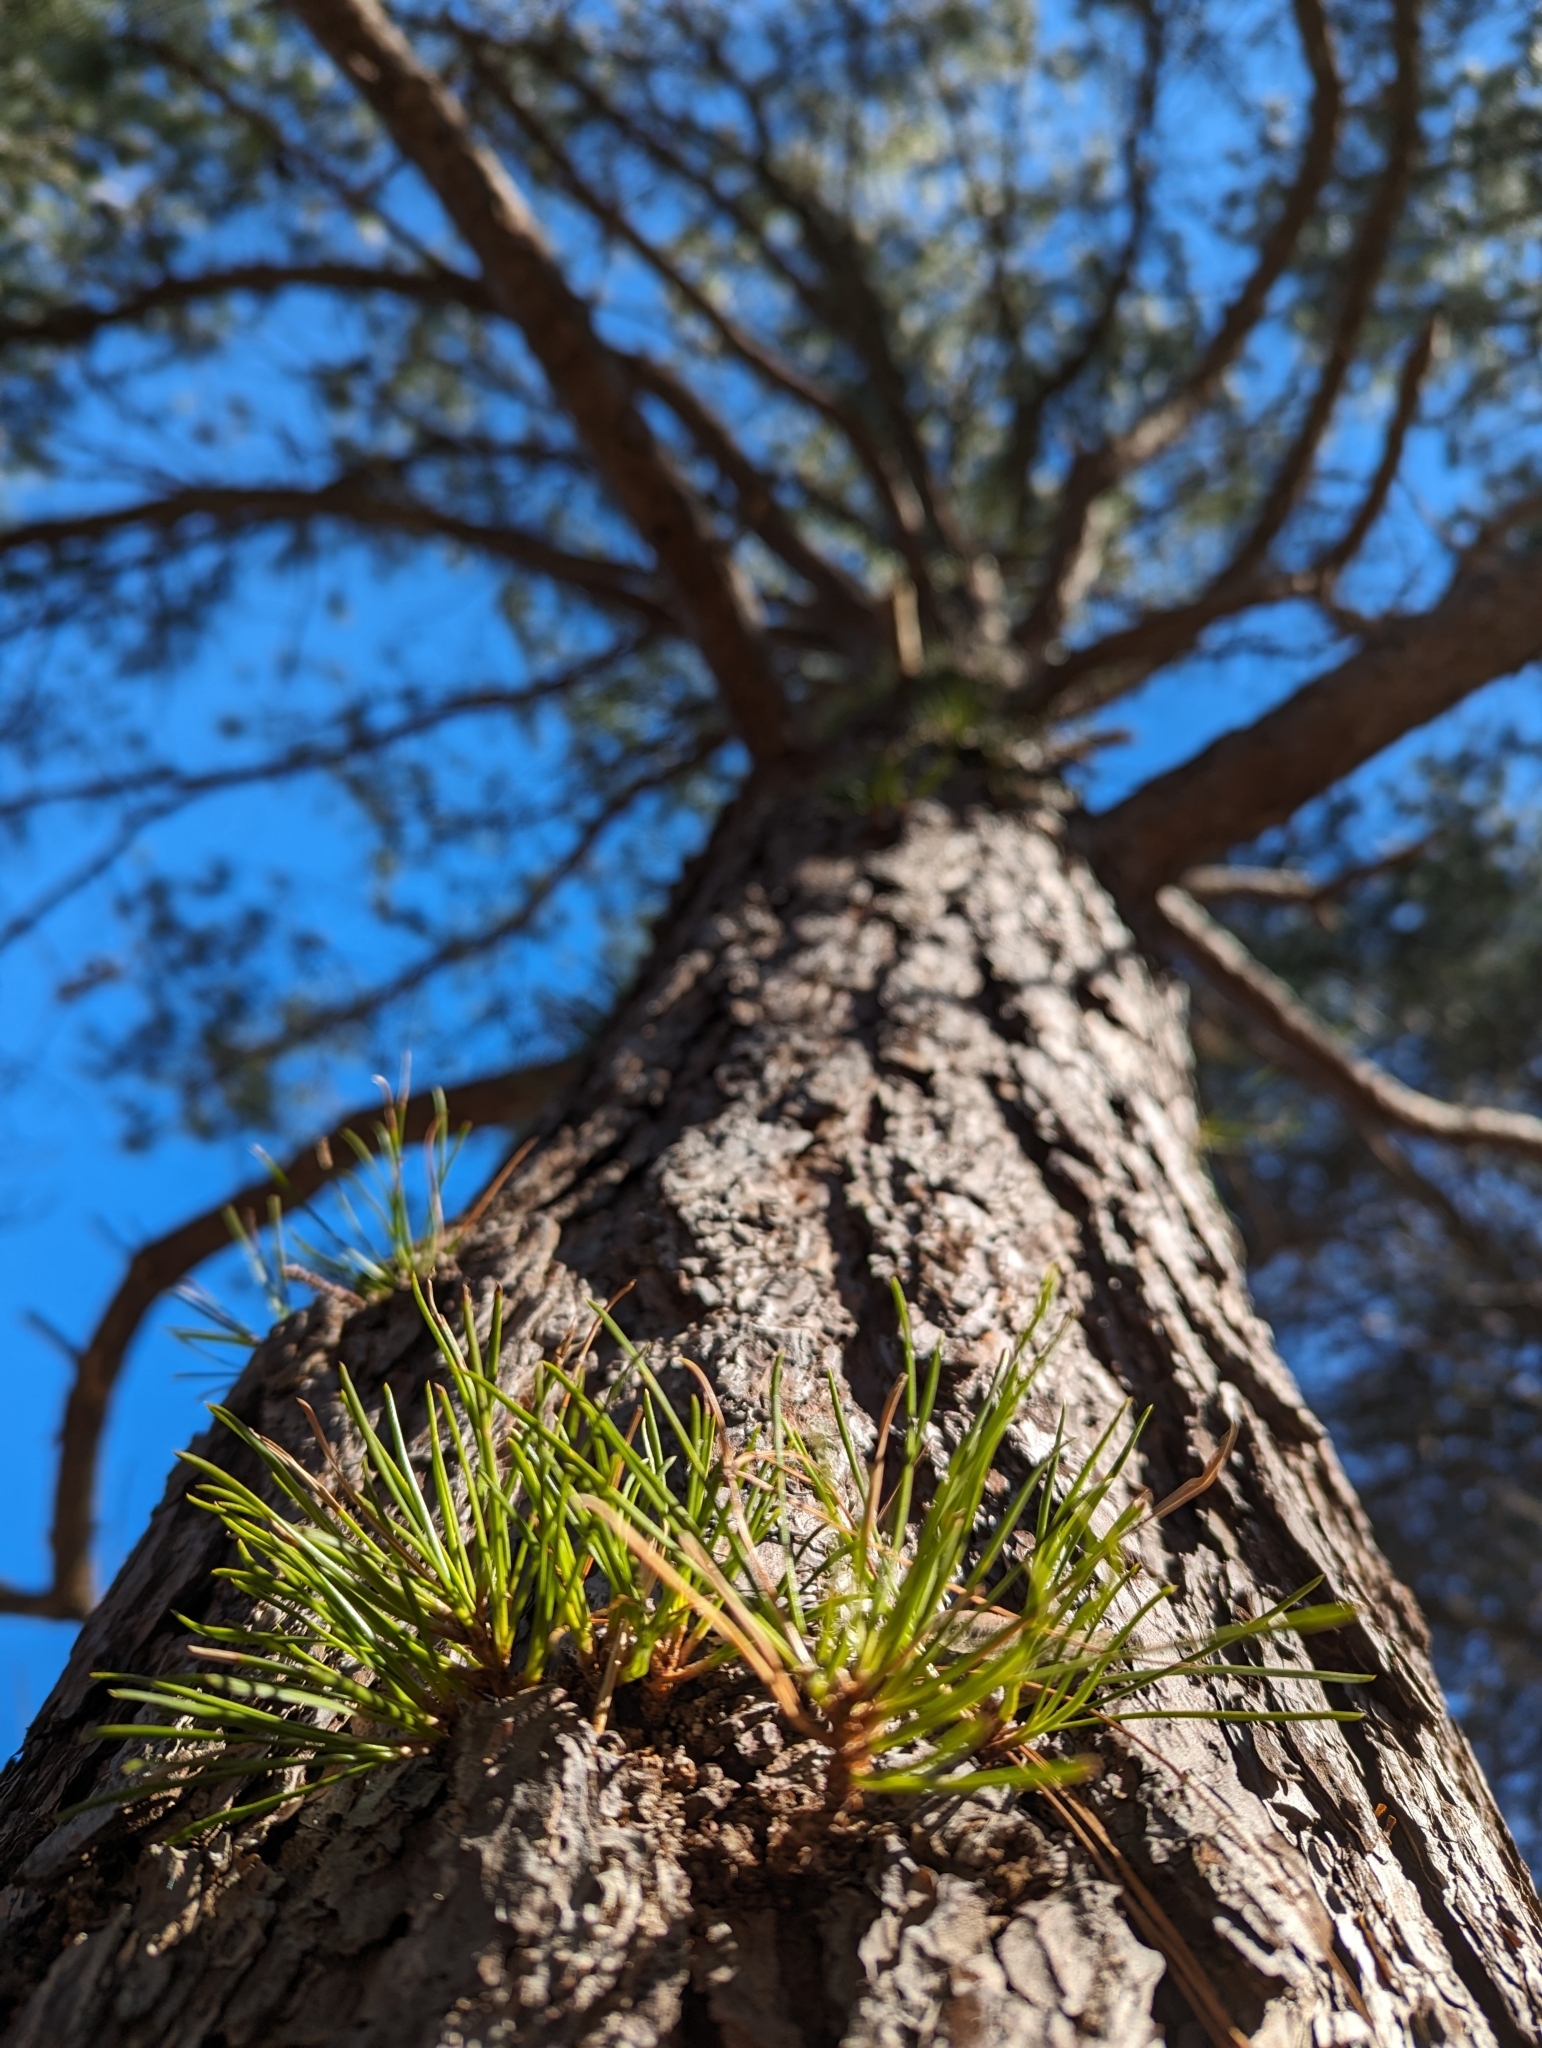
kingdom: Plantae
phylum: Tracheophyta
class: Pinopsida
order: Pinales
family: Pinaceae
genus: Pinus
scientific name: Pinus rigida
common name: Pitch pine
